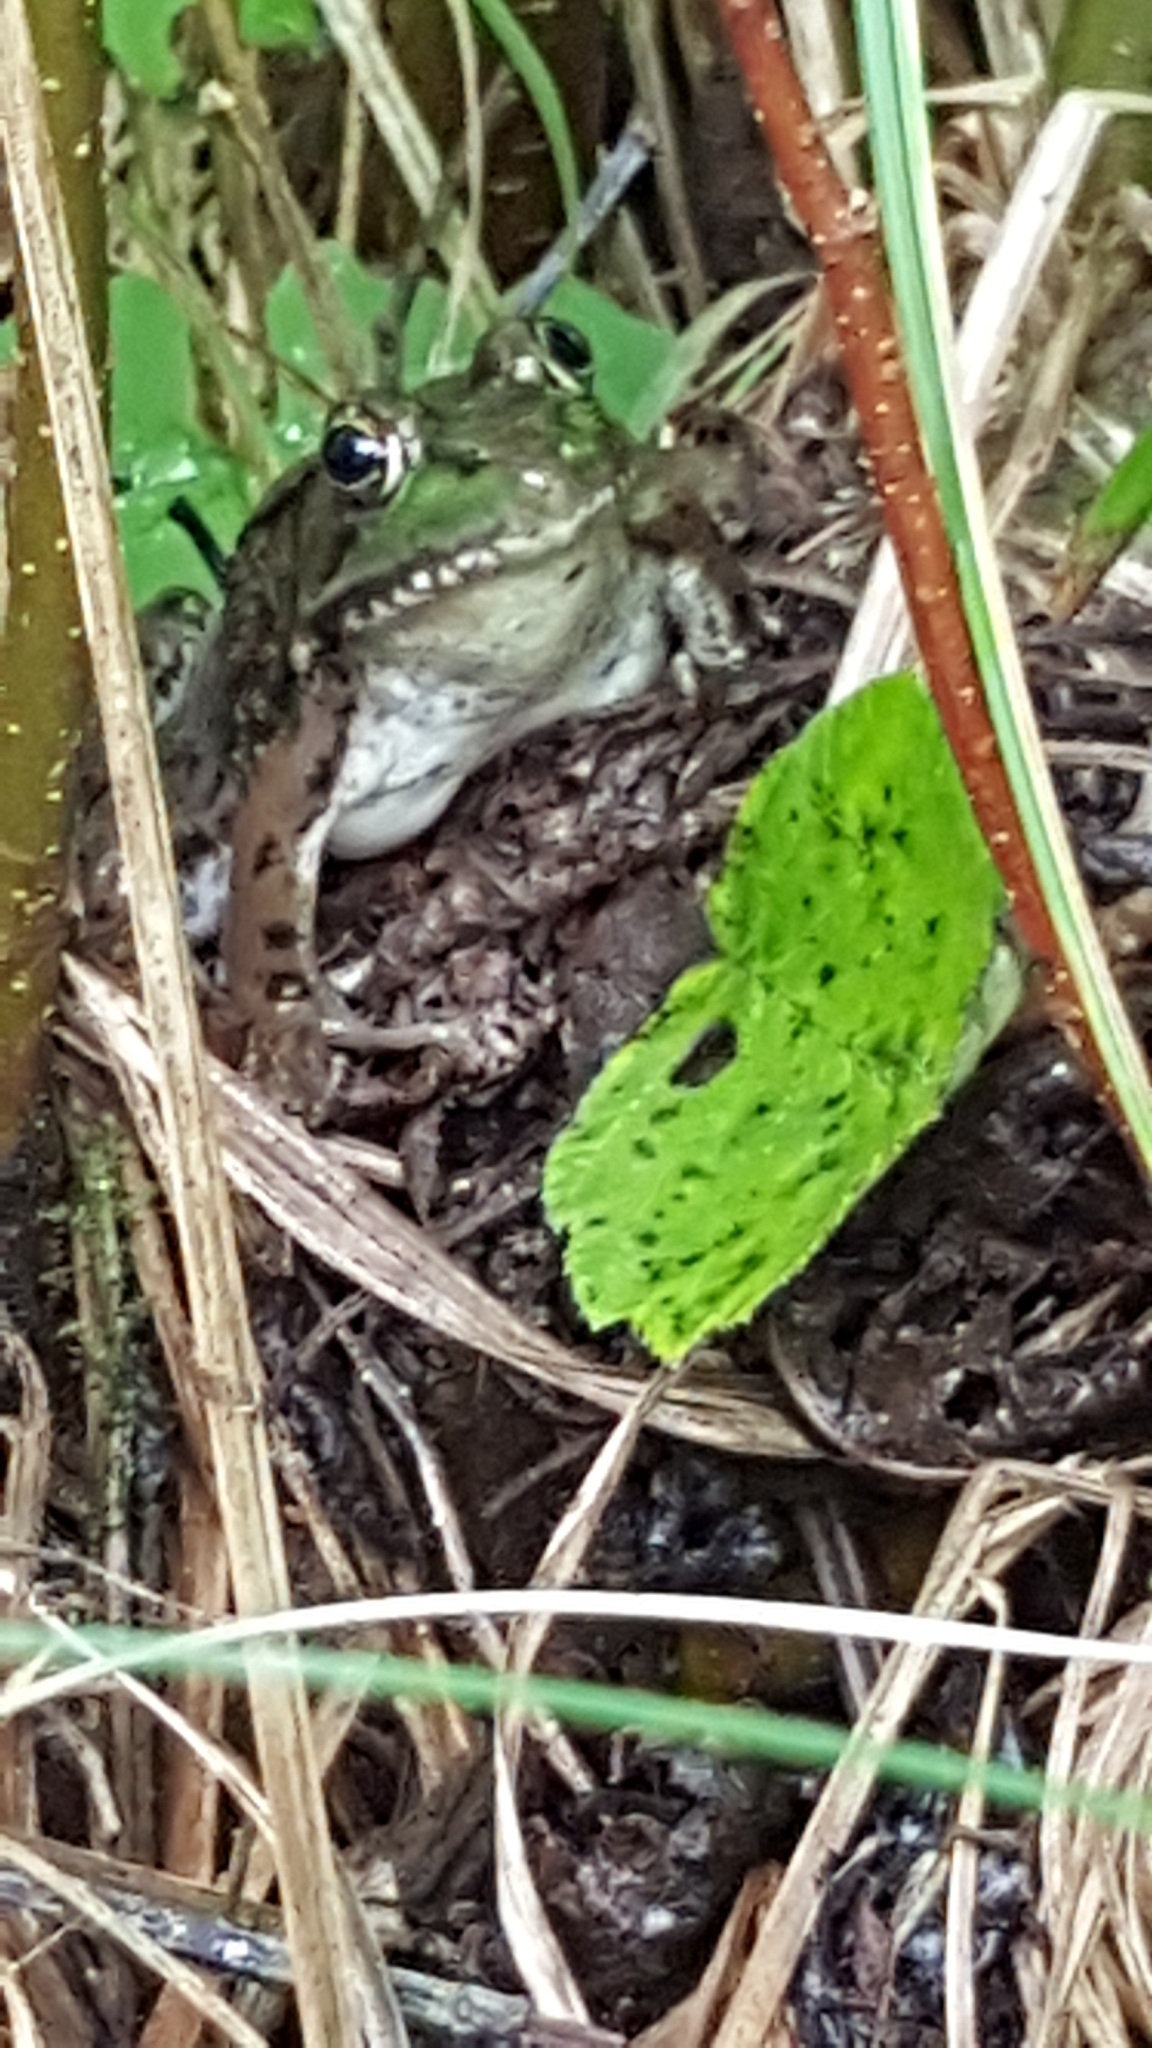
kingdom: Animalia
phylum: Chordata
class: Amphibia
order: Anura
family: Ranidae
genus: Lithobates
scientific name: Lithobates clamitans
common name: Green frog
